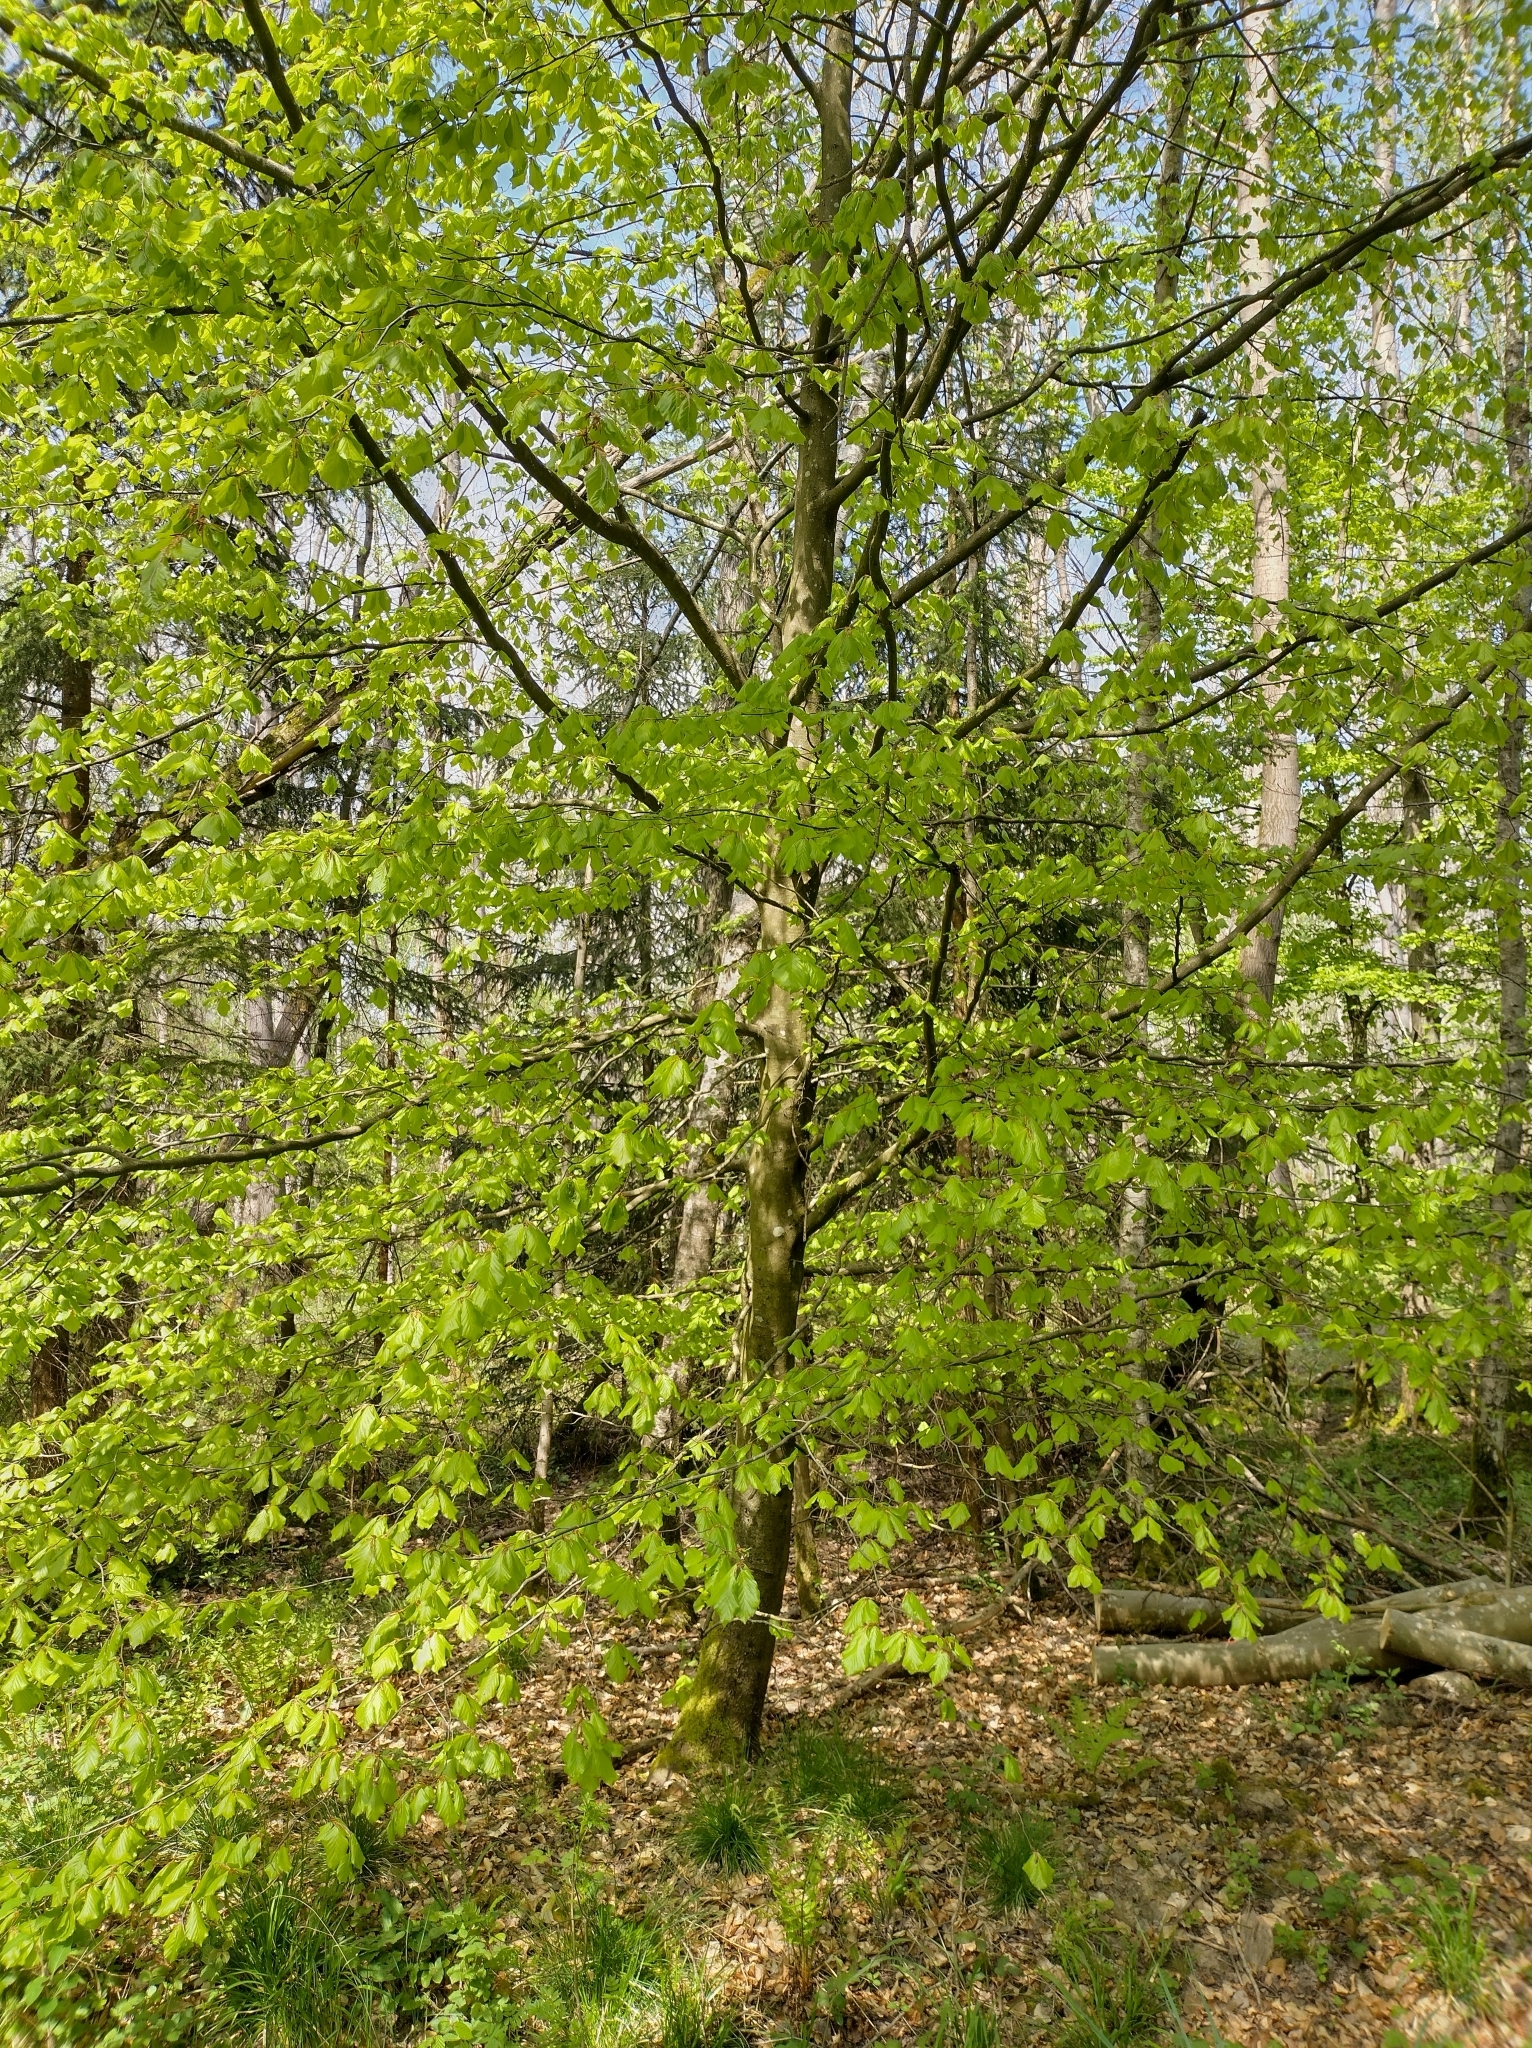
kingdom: Plantae
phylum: Tracheophyta
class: Magnoliopsida
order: Fagales
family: Fagaceae
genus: Fagus
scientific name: Fagus sylvatica
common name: Beech
